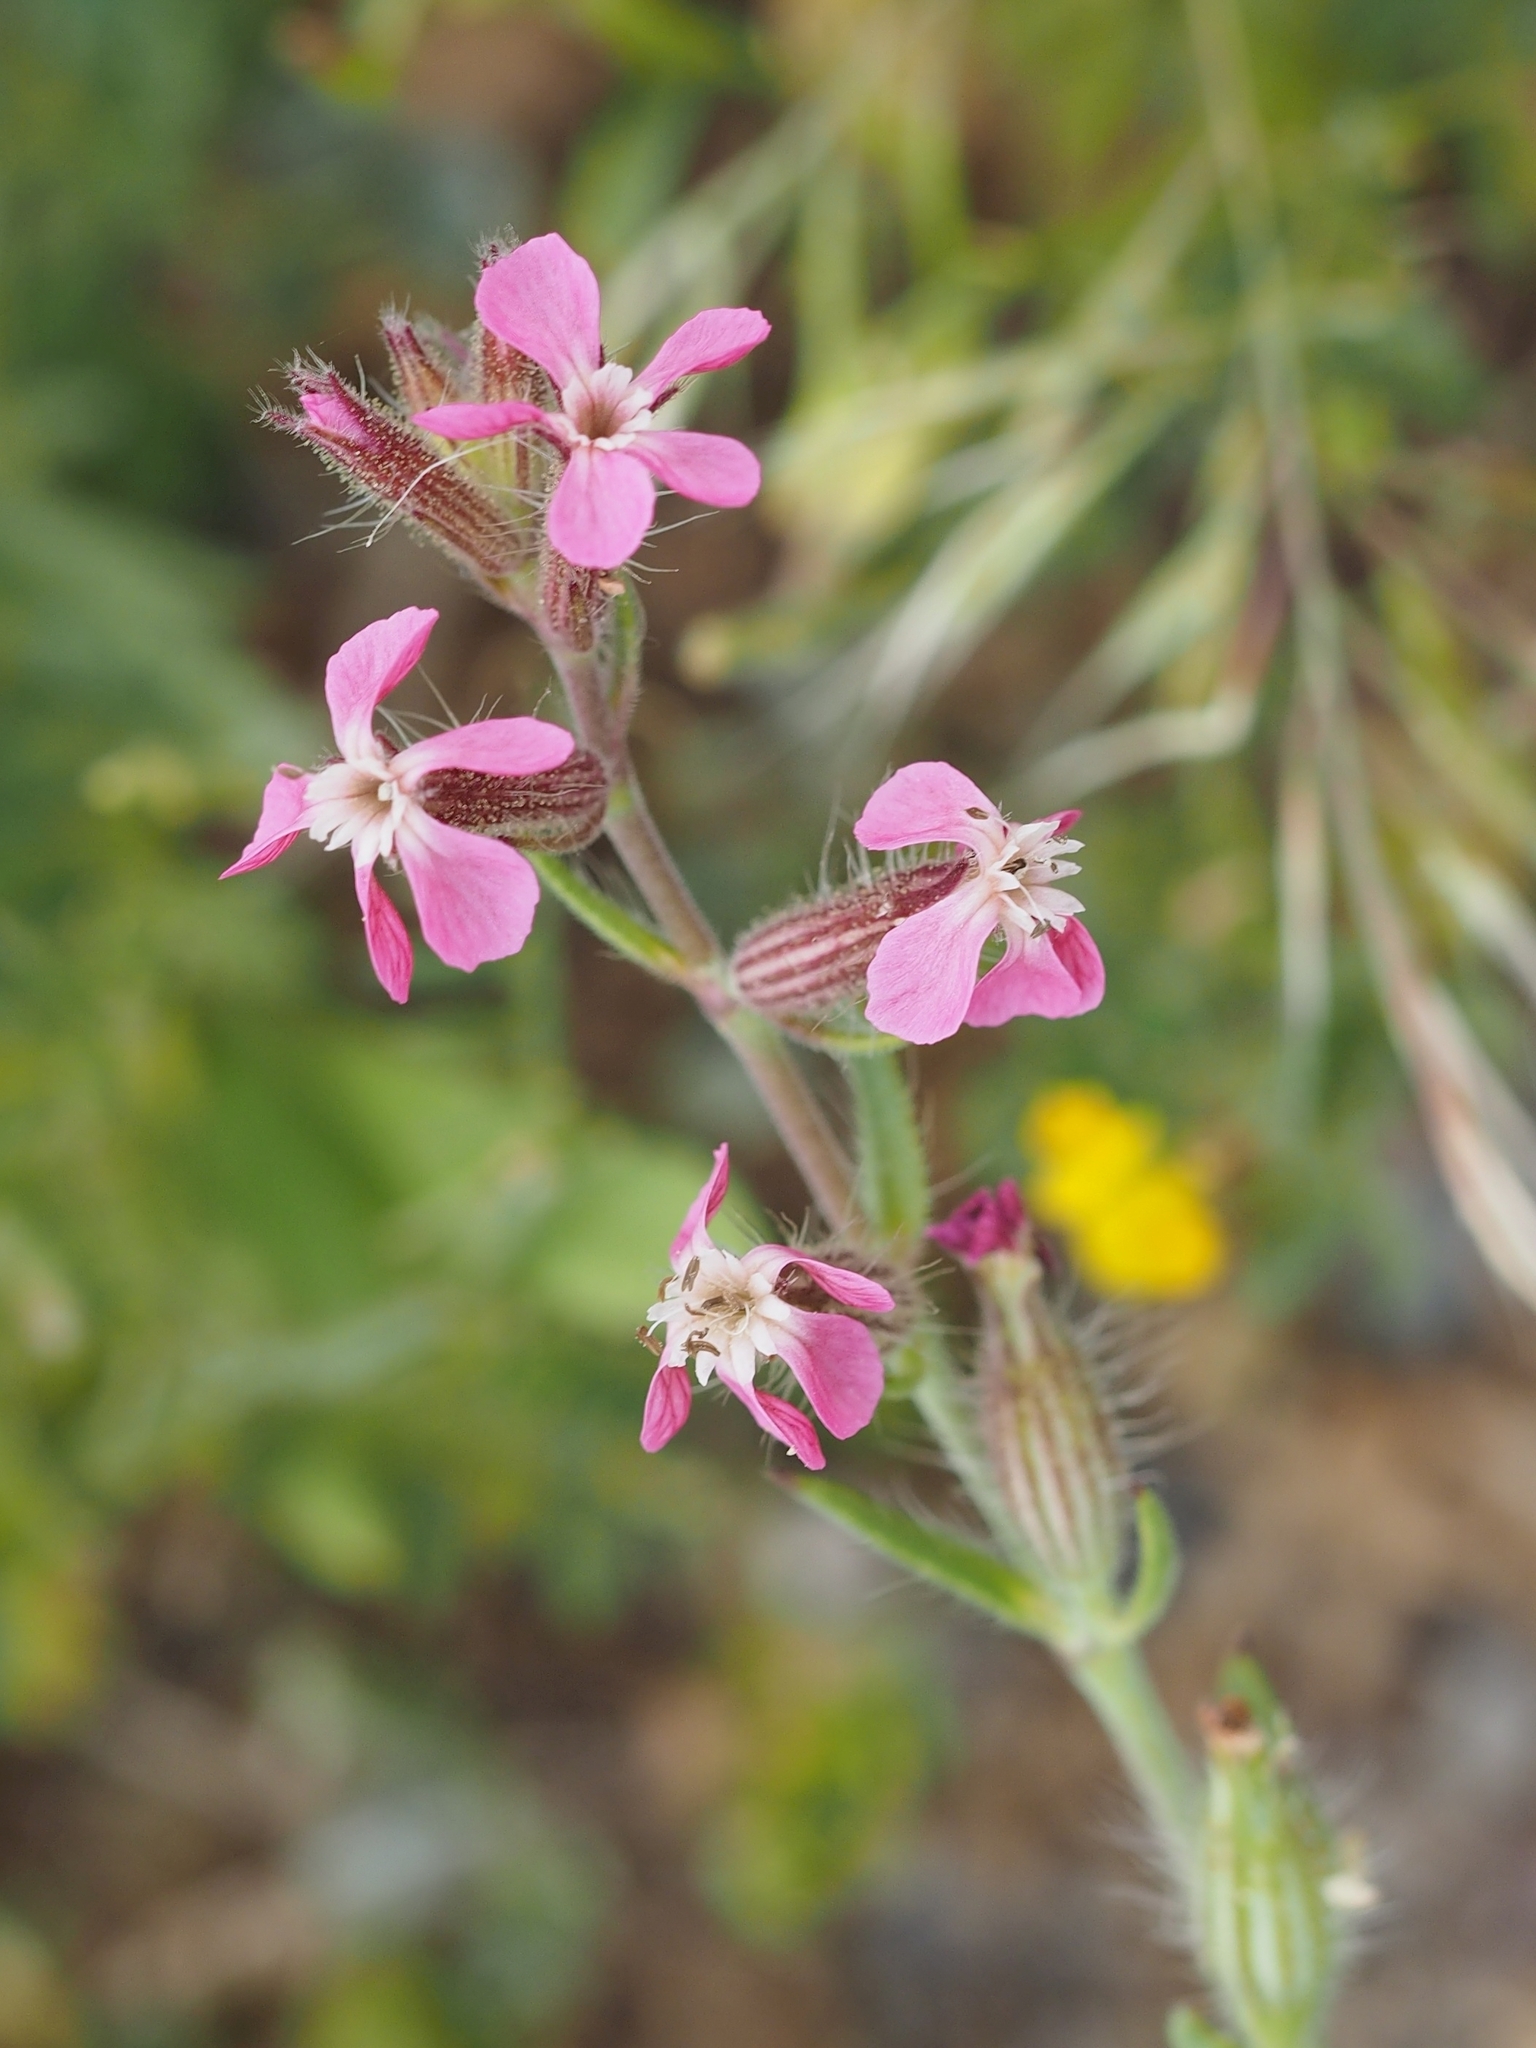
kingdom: Plantae
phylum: Tracheophyta
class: Magnoliopsida
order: Caryophyllales
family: Caryophyllaceae
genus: Silene
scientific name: Silene gallica
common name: Small-flowered catchfly
